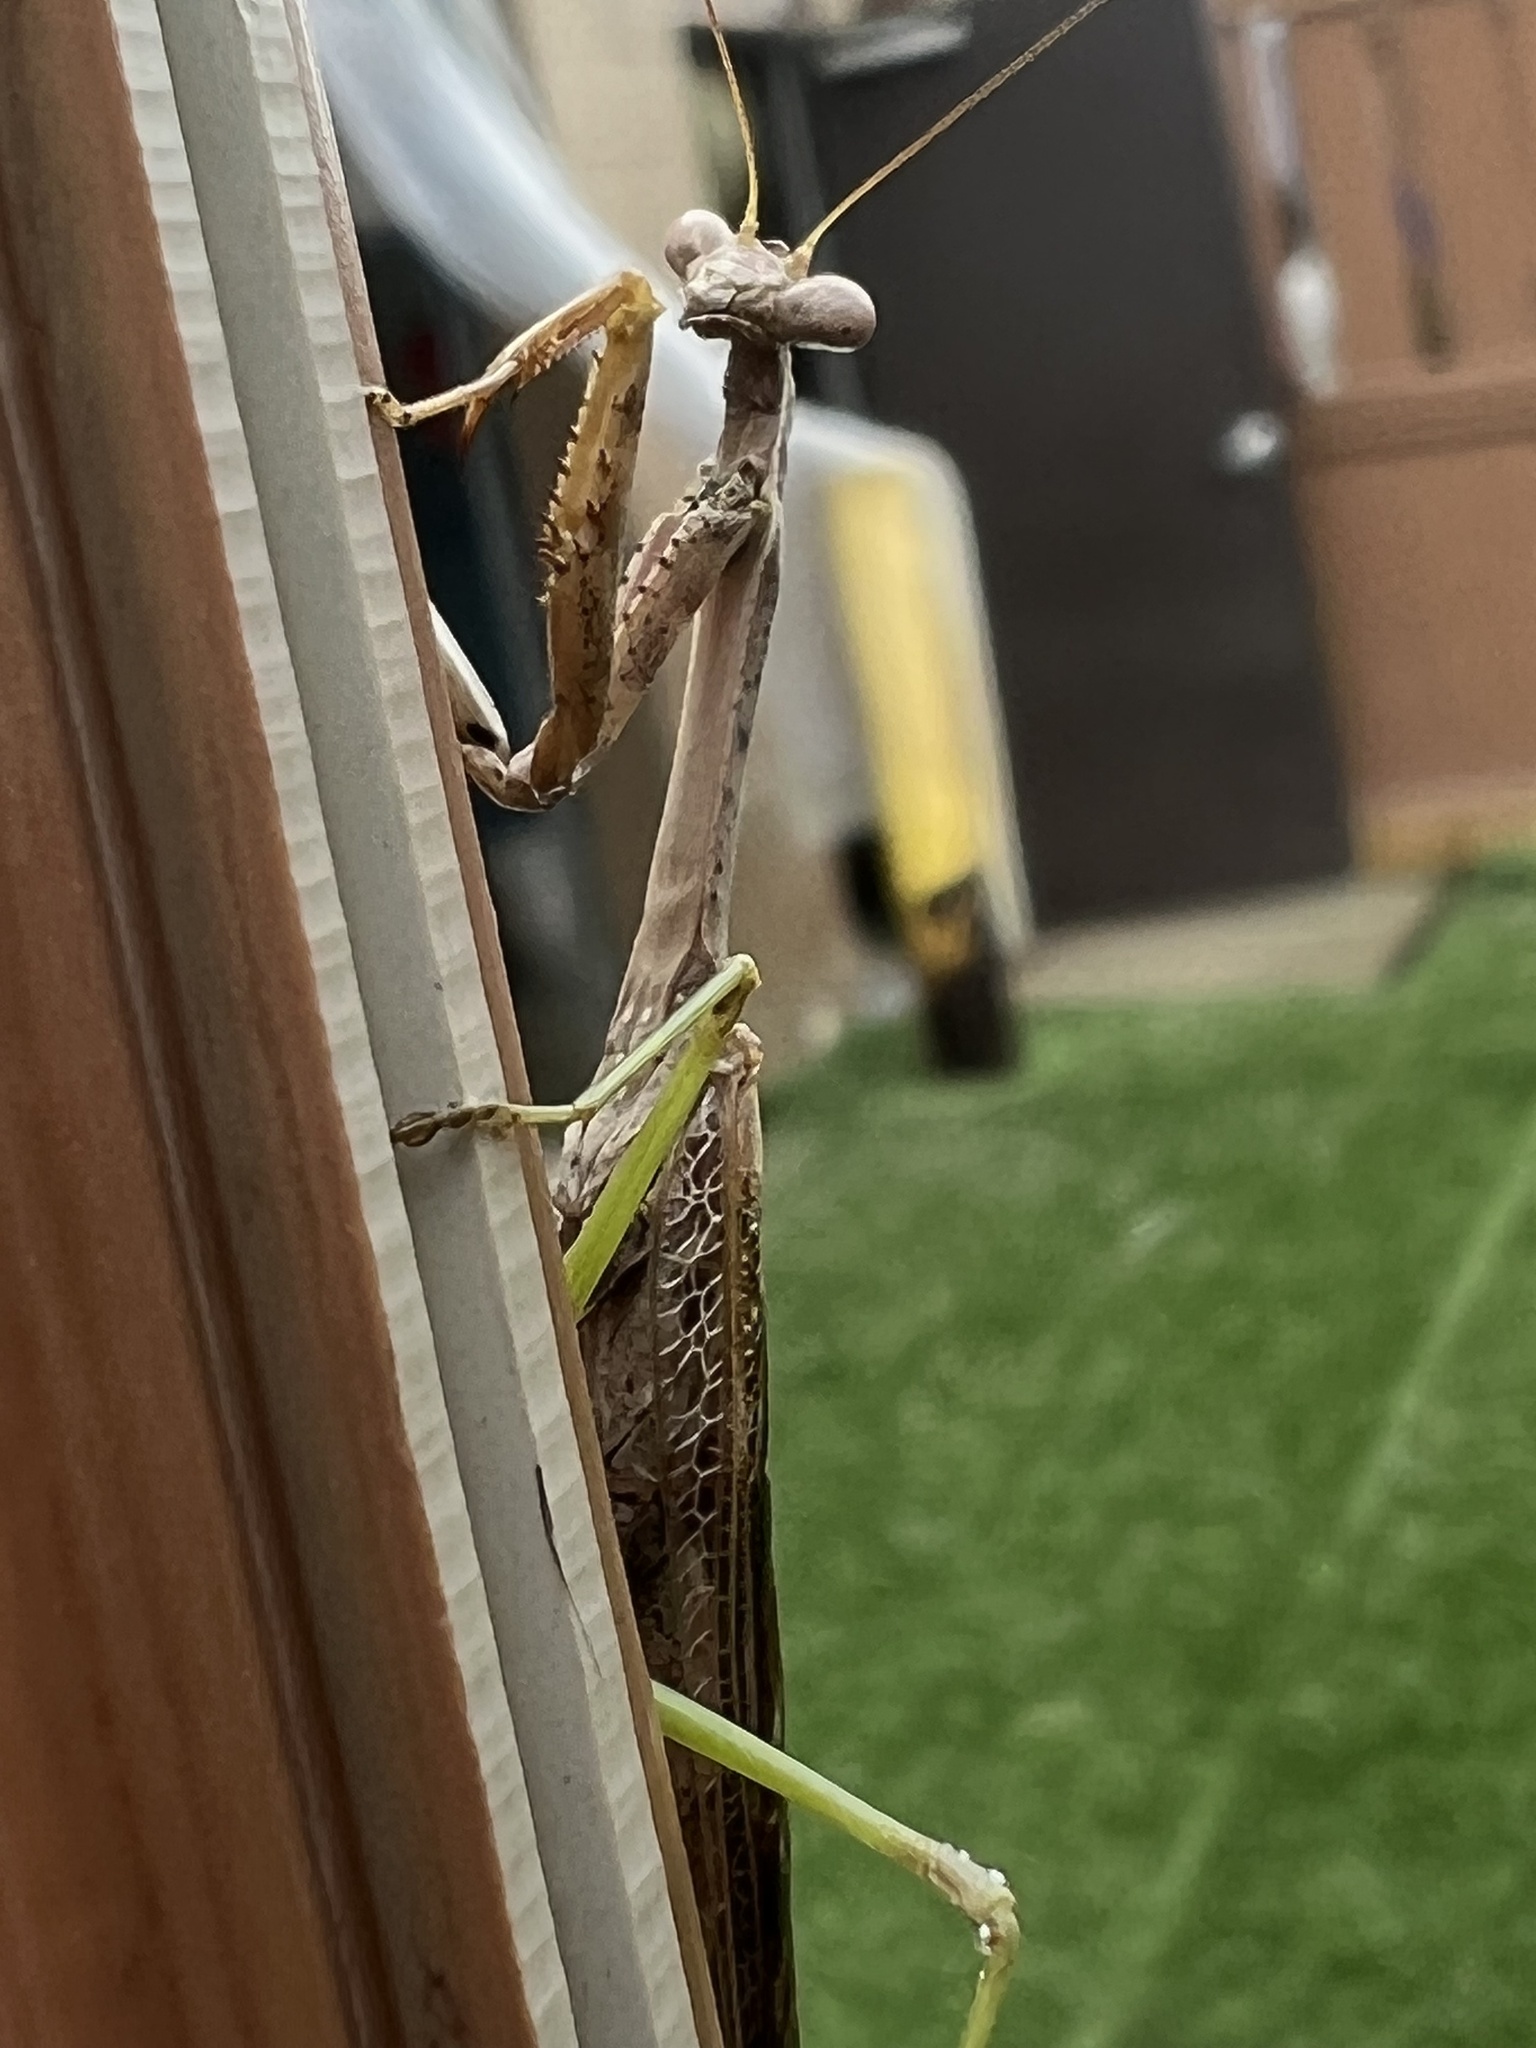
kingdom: Animalia
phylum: Arthropoda
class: Insecta
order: Mantodea
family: Mantidae
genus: Stagmomantis
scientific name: Stagmomantis carolina
